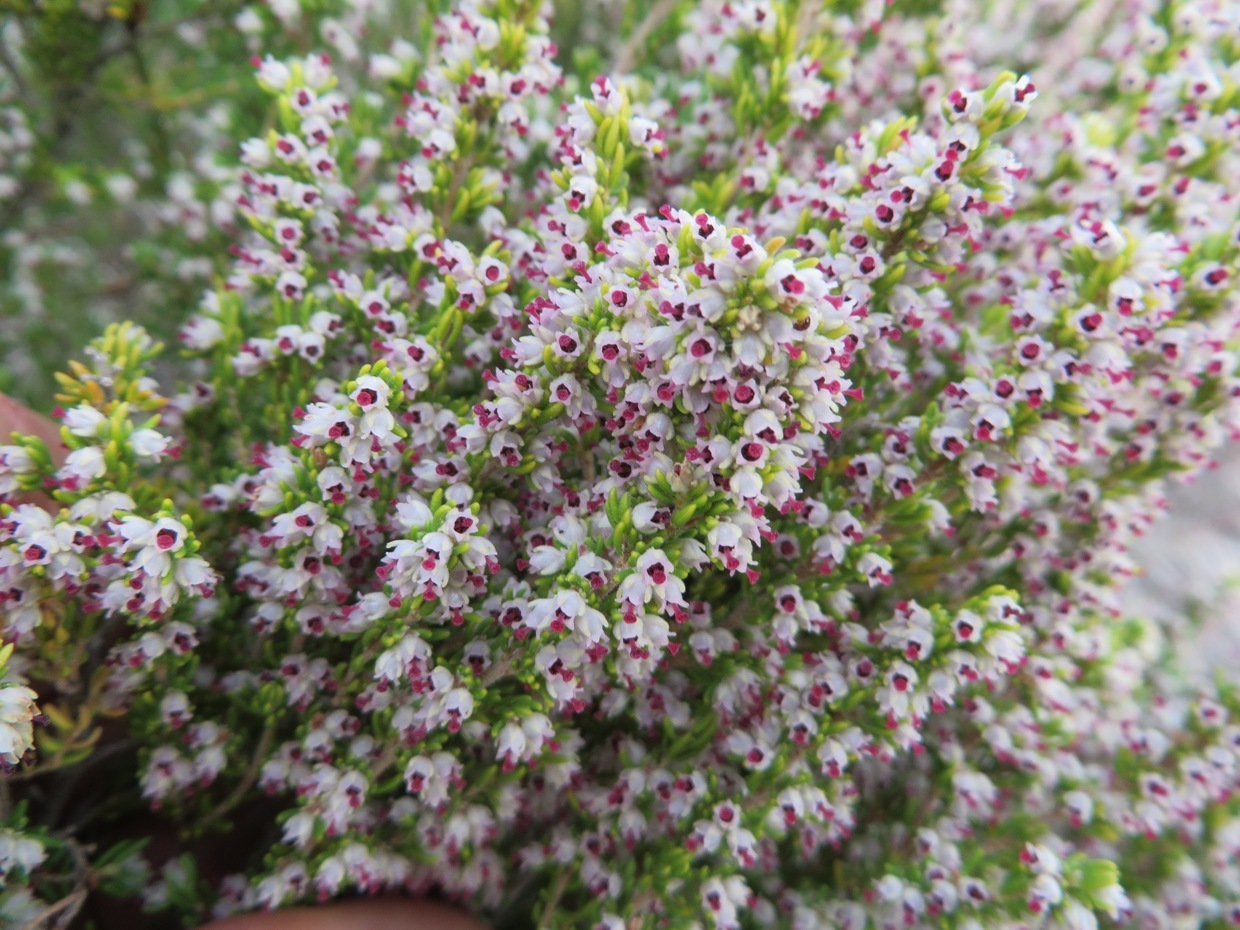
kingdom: Plantae
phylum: Tracheophyta
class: Magnoliopsida
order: Ericales
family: Ericaceae
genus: Erica
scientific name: Erica hispidula
